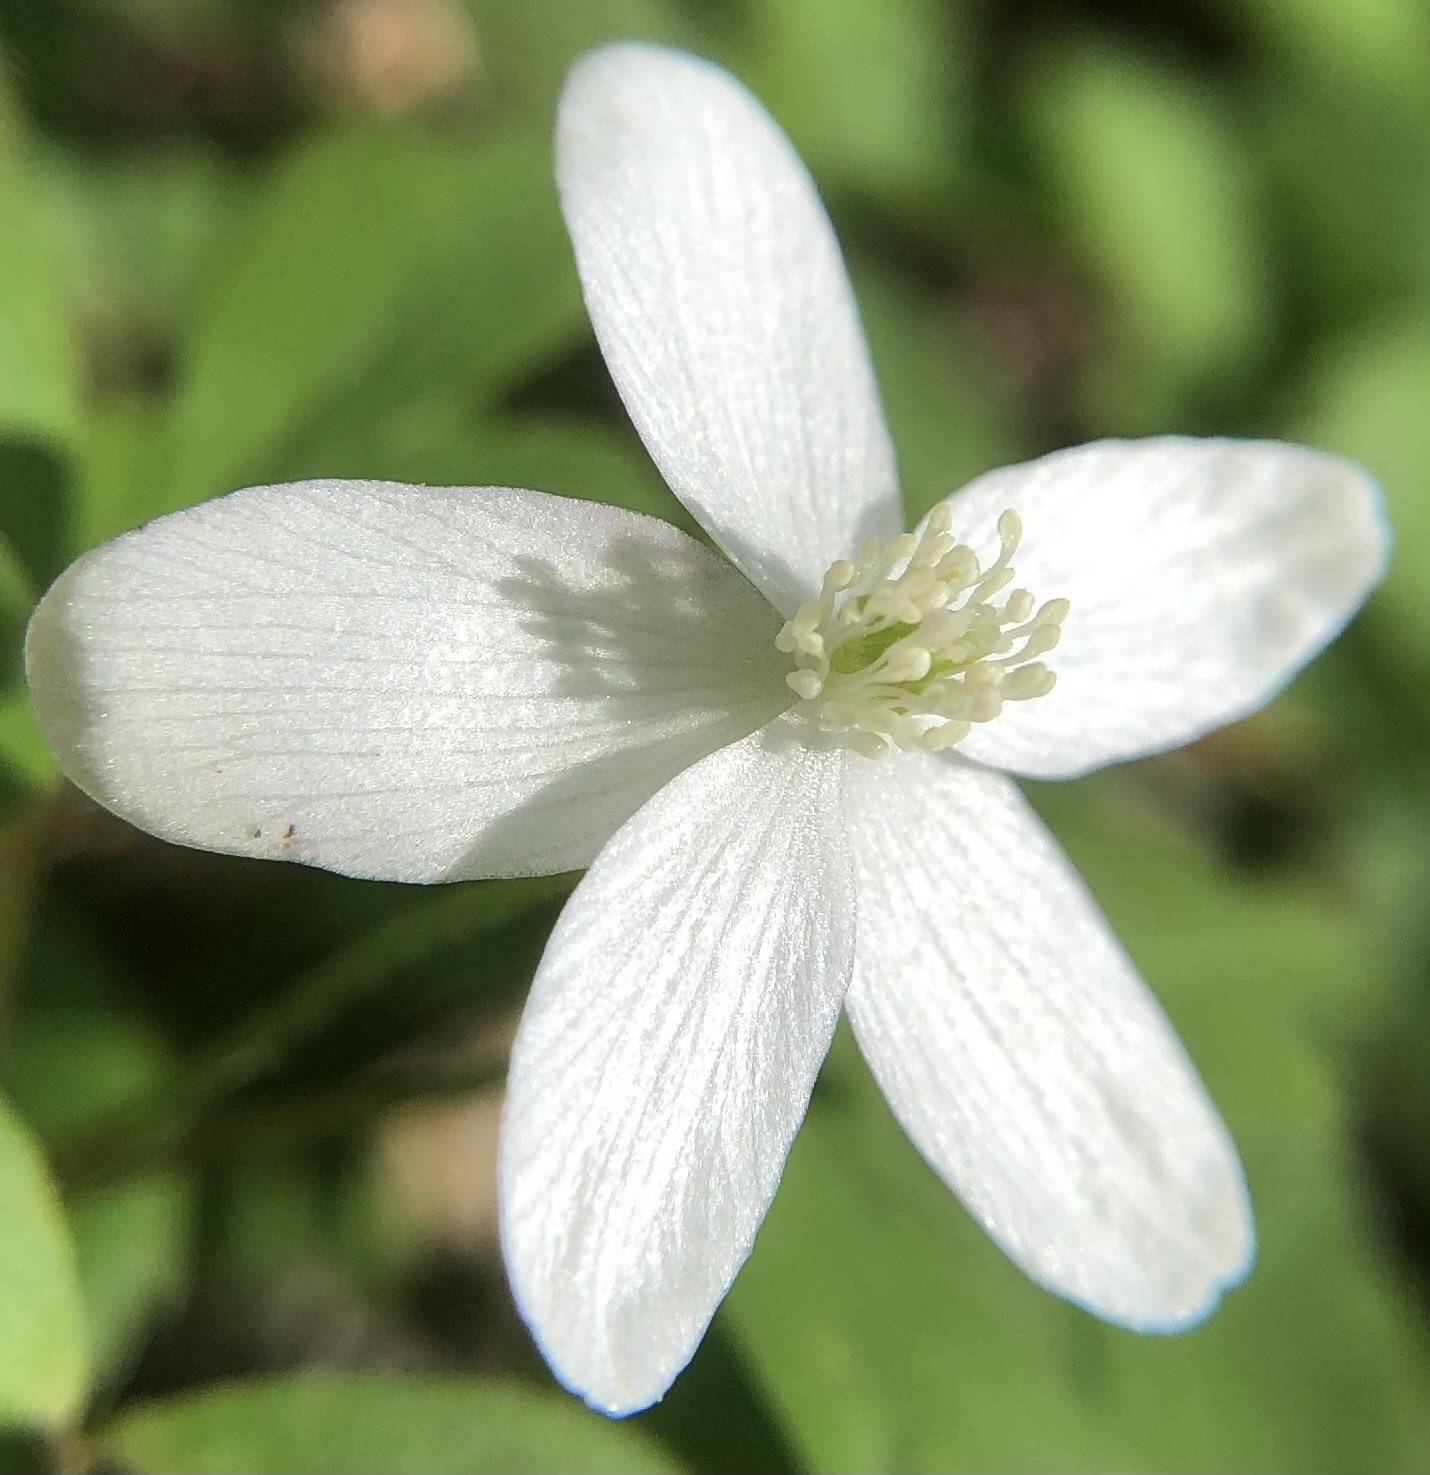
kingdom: Plantae
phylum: Tracheophyta
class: Magnoliopsida
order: Ranunculales
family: Ranunculaceae
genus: Anemone
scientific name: Anemone quinquefolia
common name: Wood anemone
